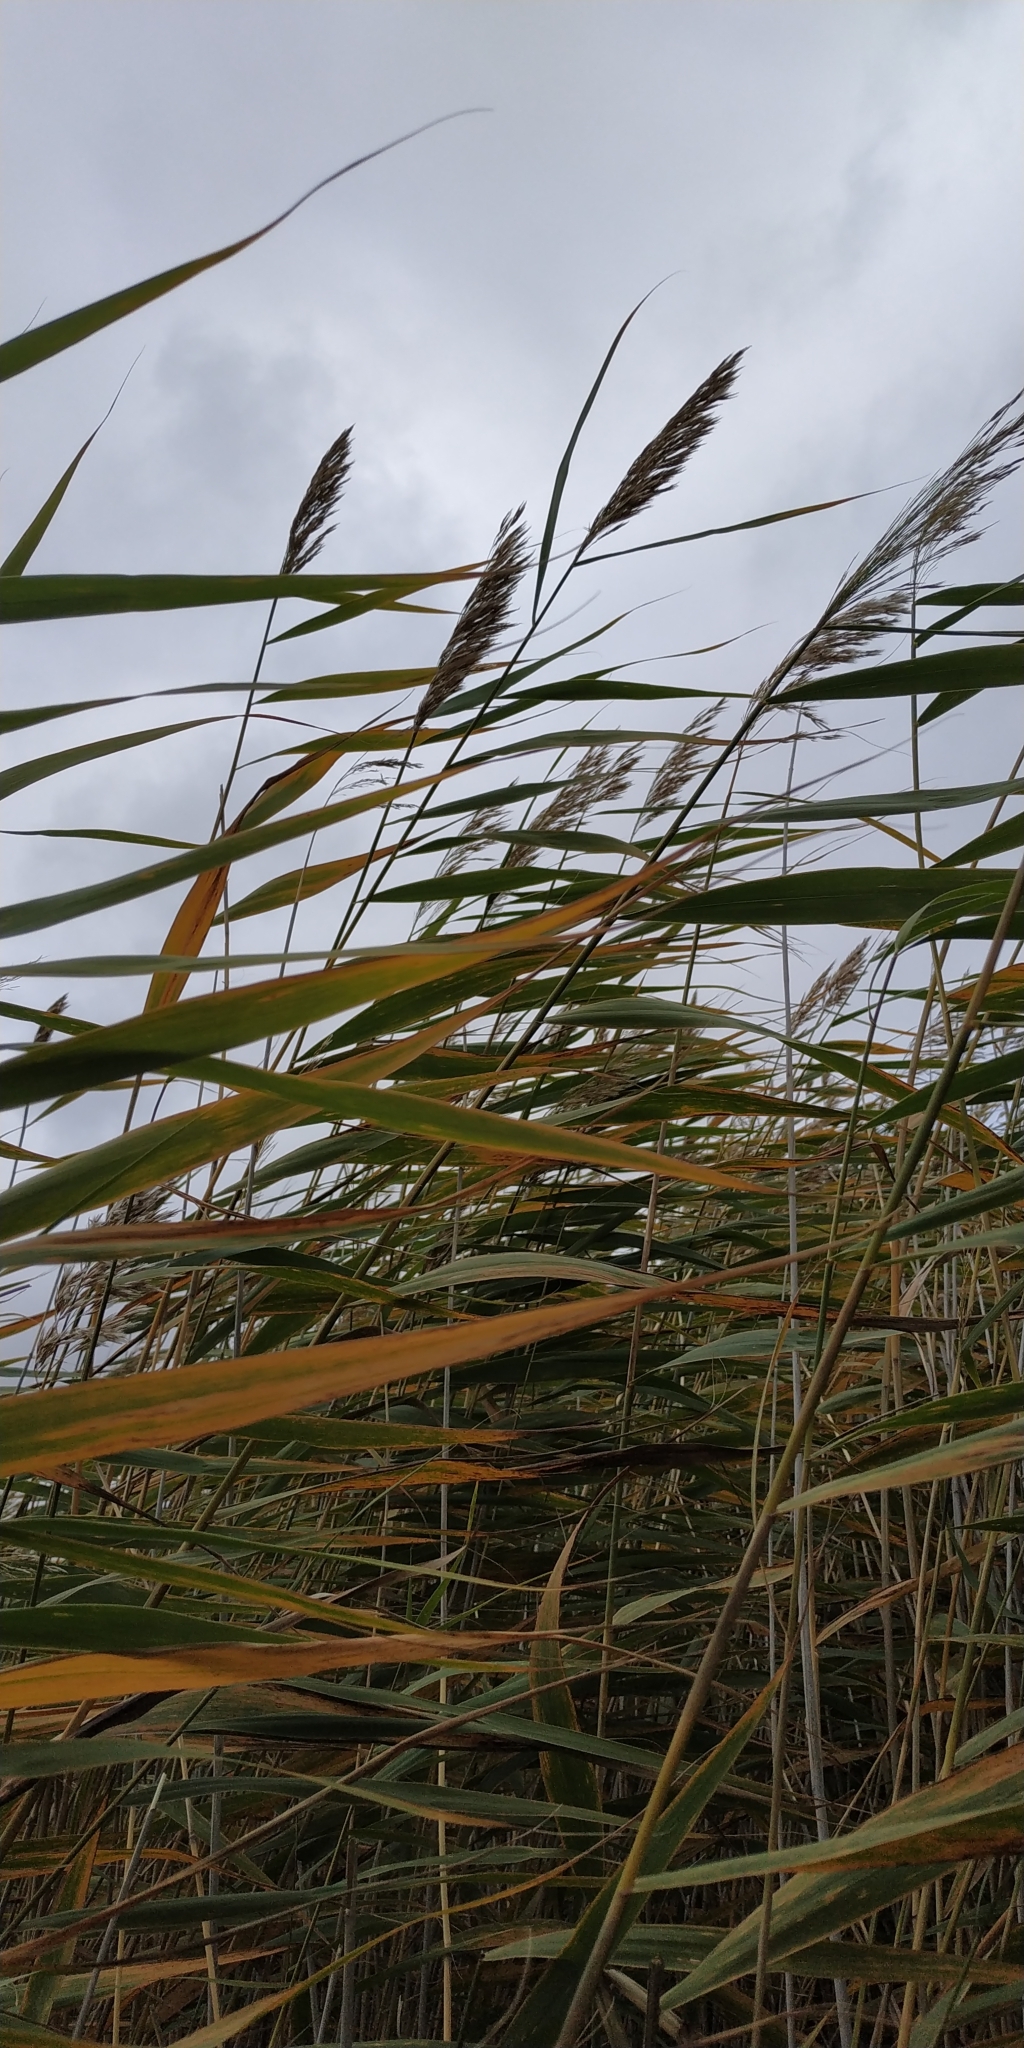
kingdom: Plantae
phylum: Tracheophyta
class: Liliopsida
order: Poales
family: Poaceae
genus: Phragmites
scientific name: Phragmites australis
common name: Common reed
